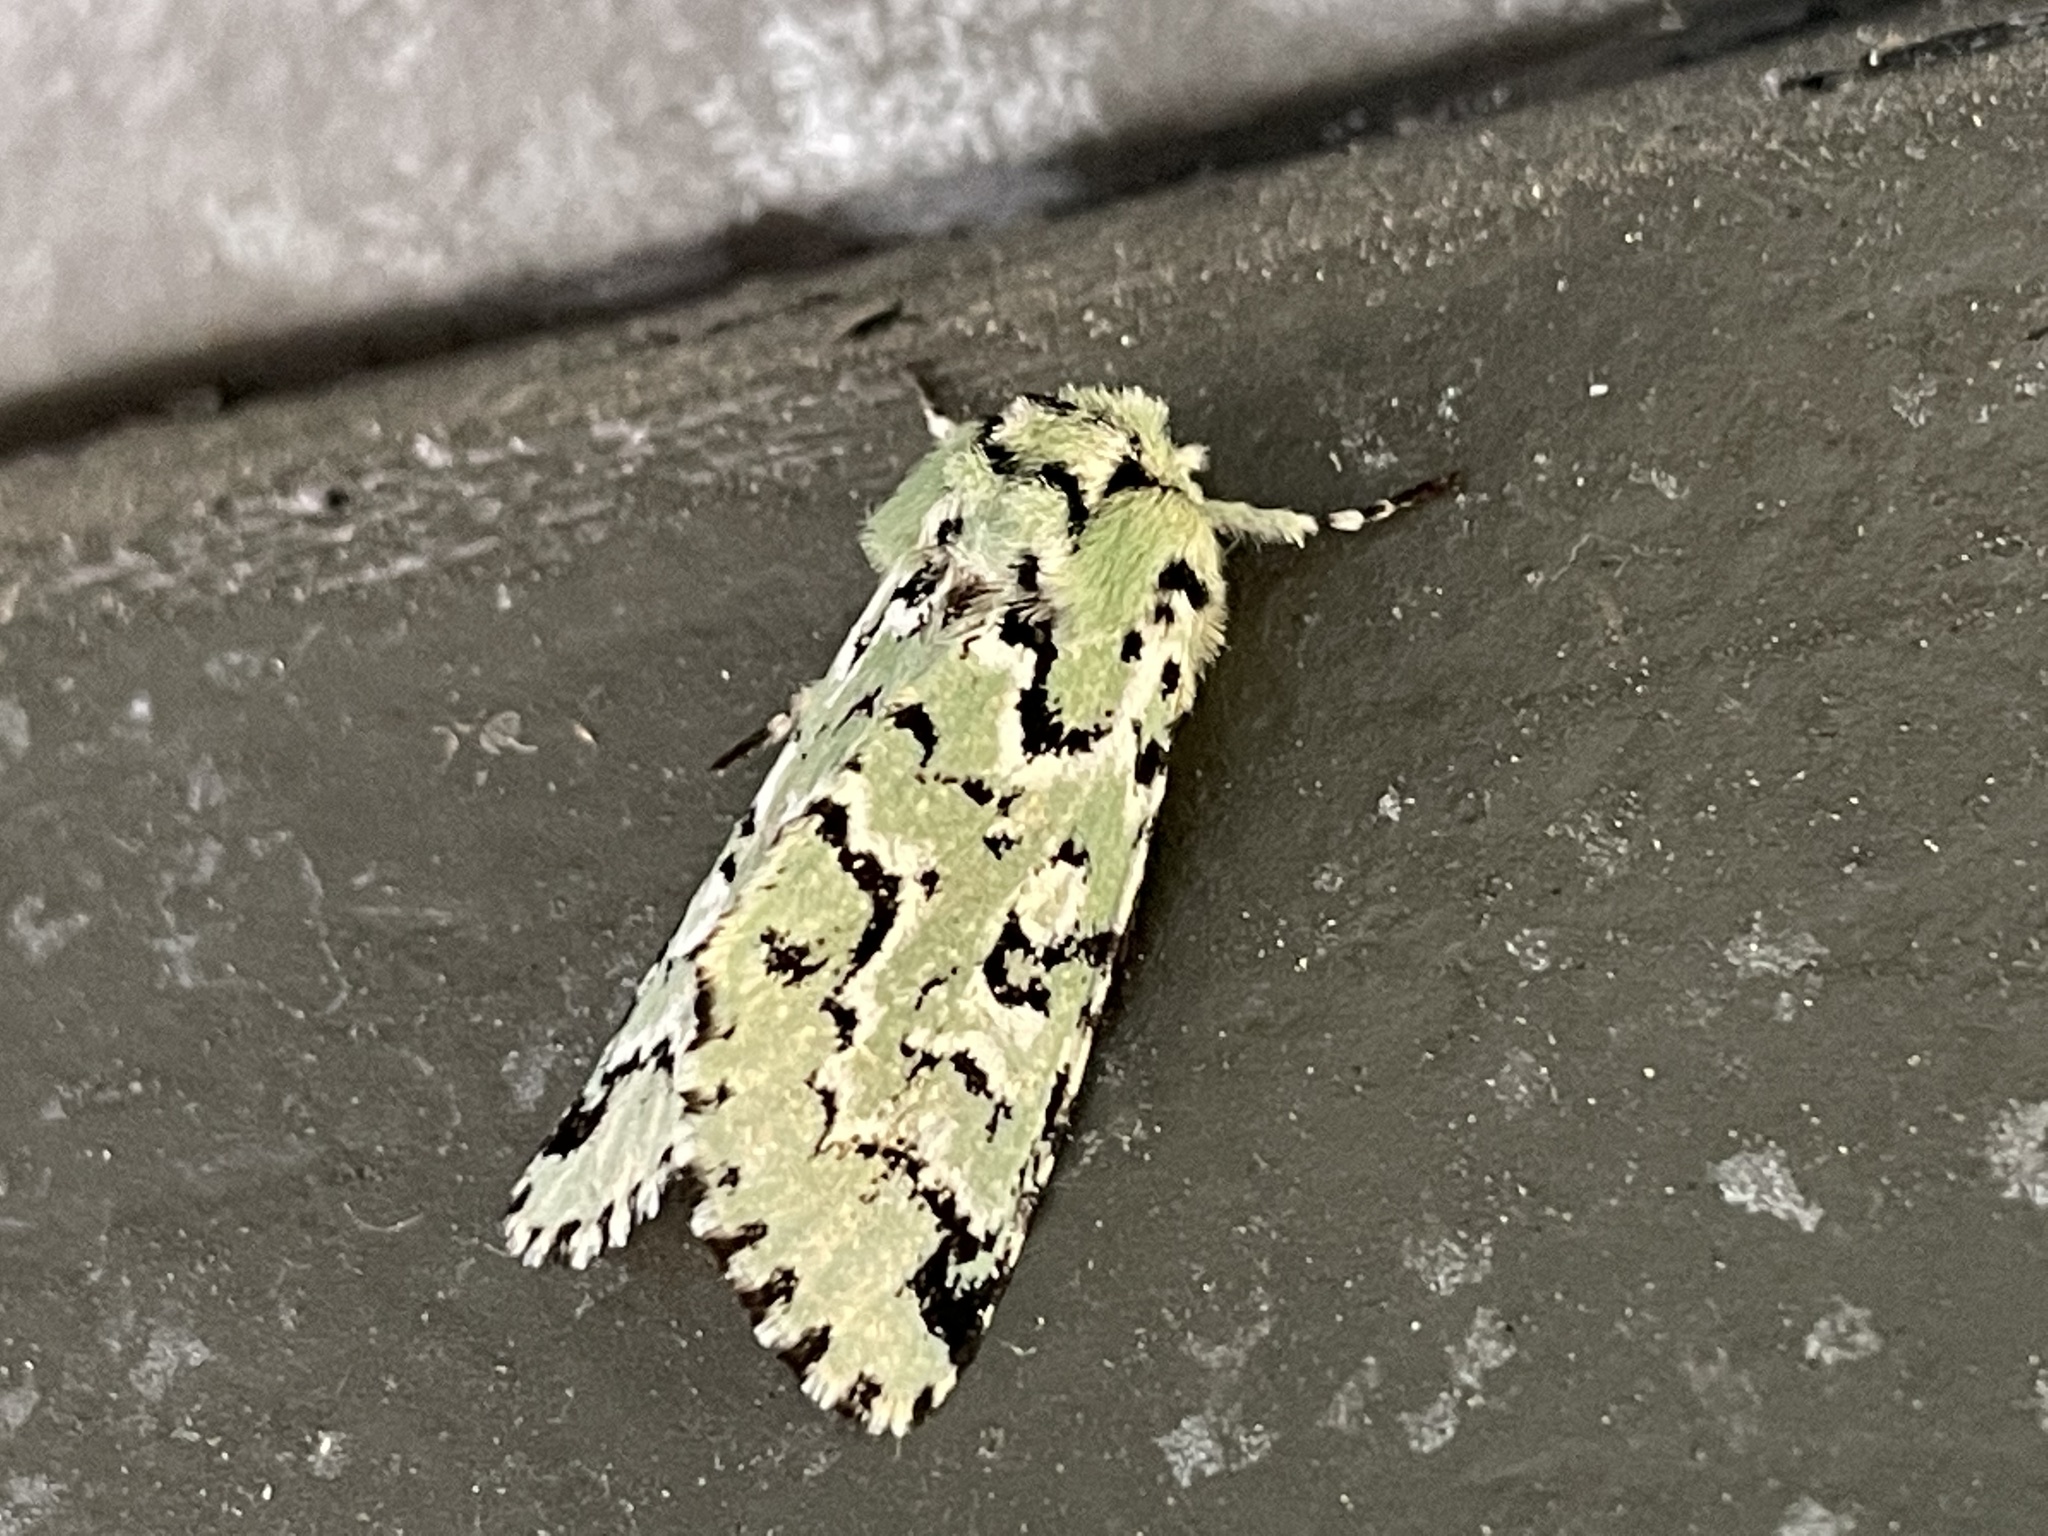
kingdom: Animalia
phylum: Arthropoda
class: Insecta
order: Lepidoptera
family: Noctuidae
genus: Feralia
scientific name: Feralia deceptiva
